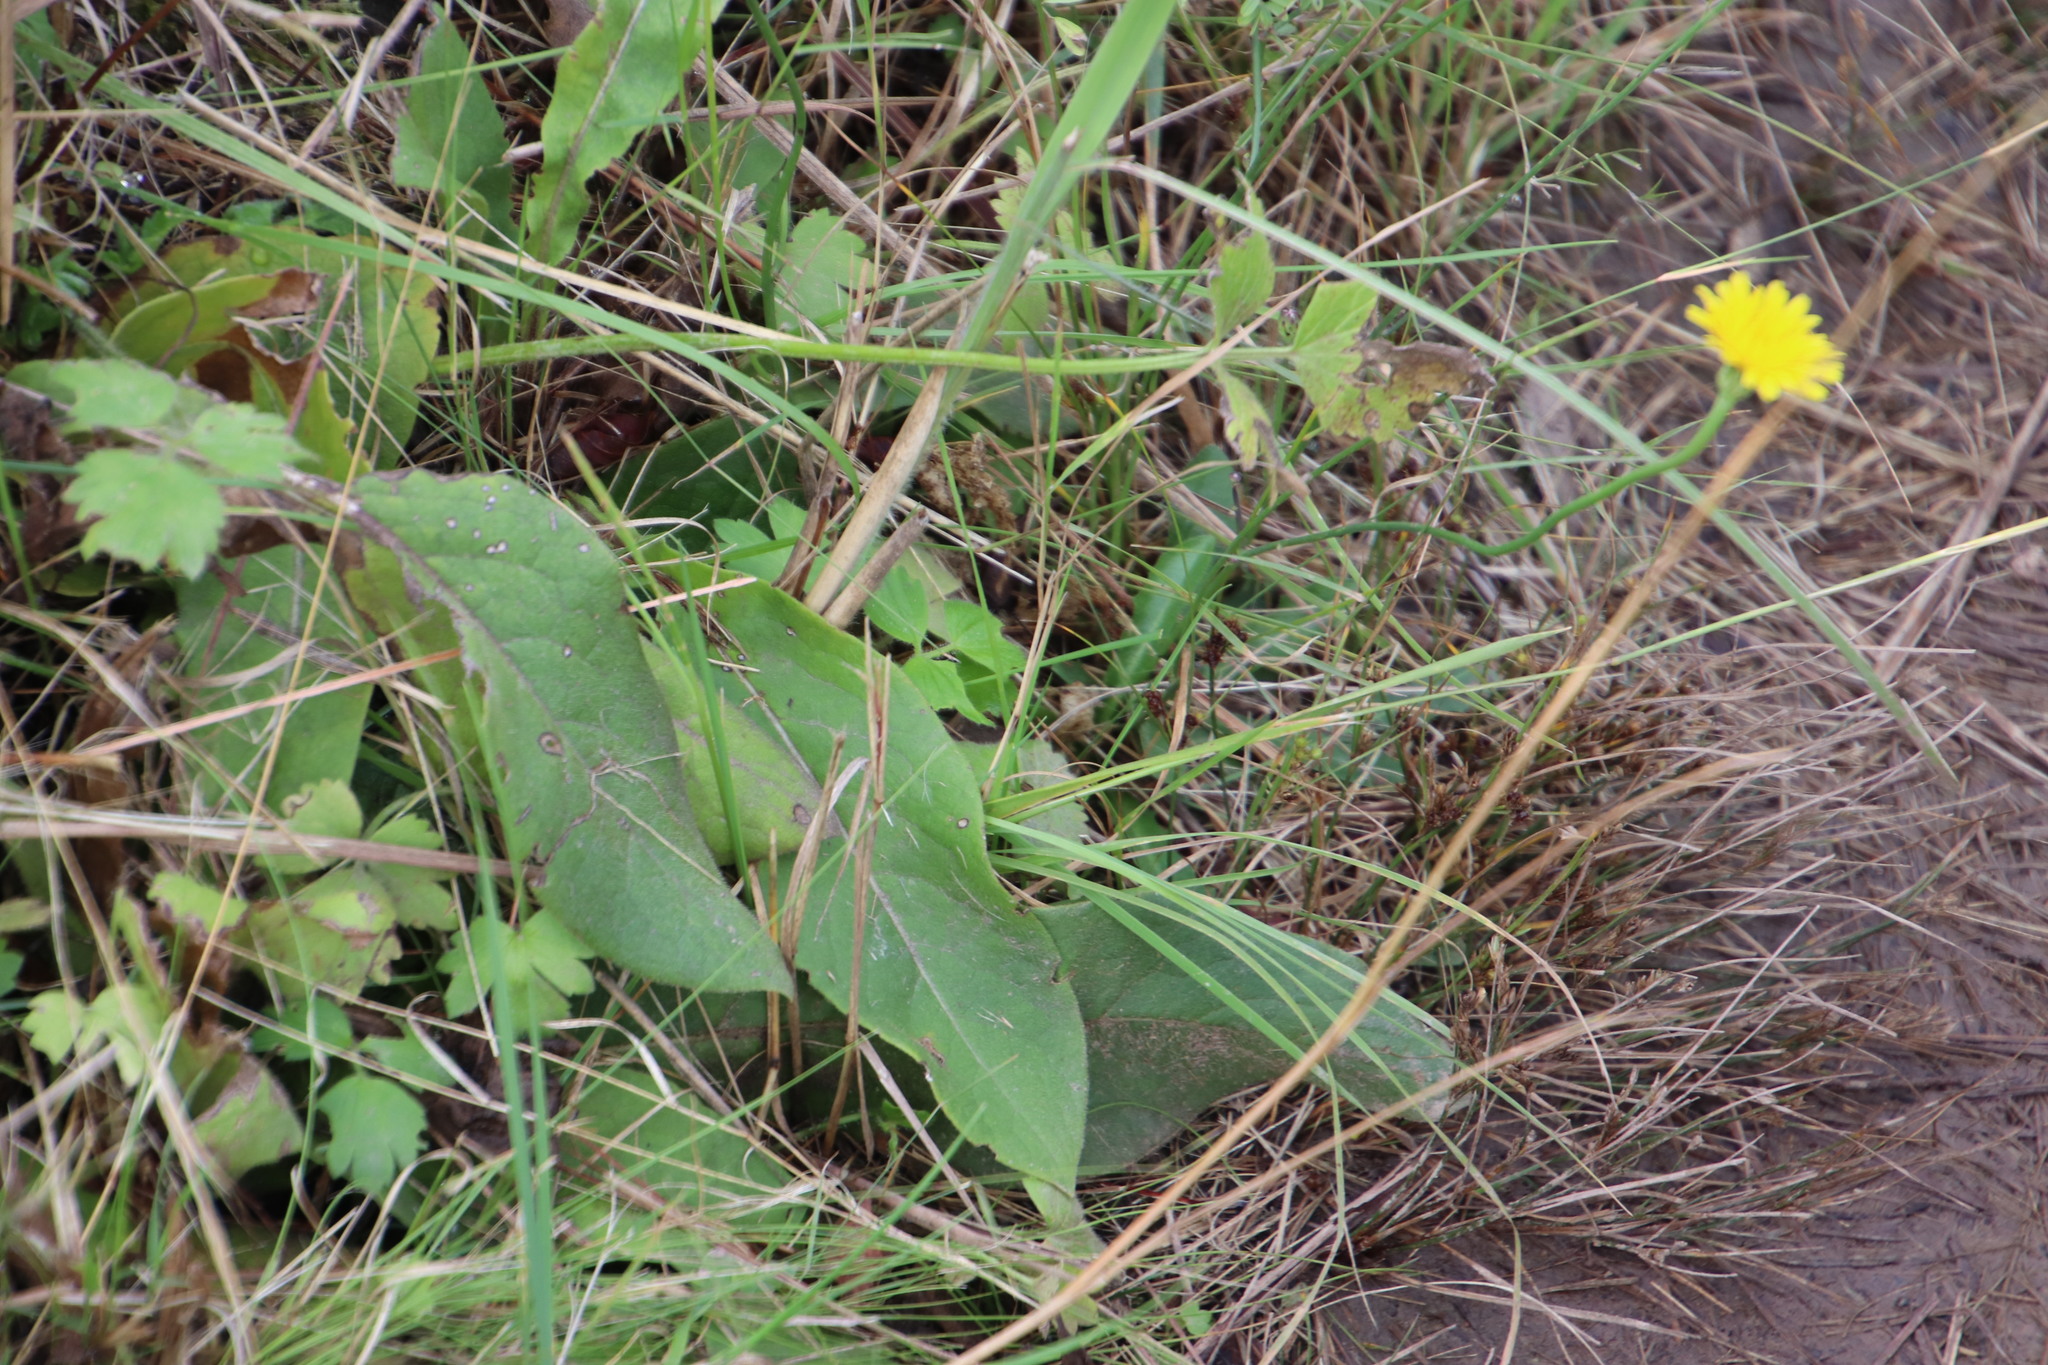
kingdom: Plantae
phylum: Tracheophyta
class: Magnoliopsida
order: Asterales
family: Asteraceae
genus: Hypochaeris
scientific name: Hypochaeris radicata
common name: Flatweed
